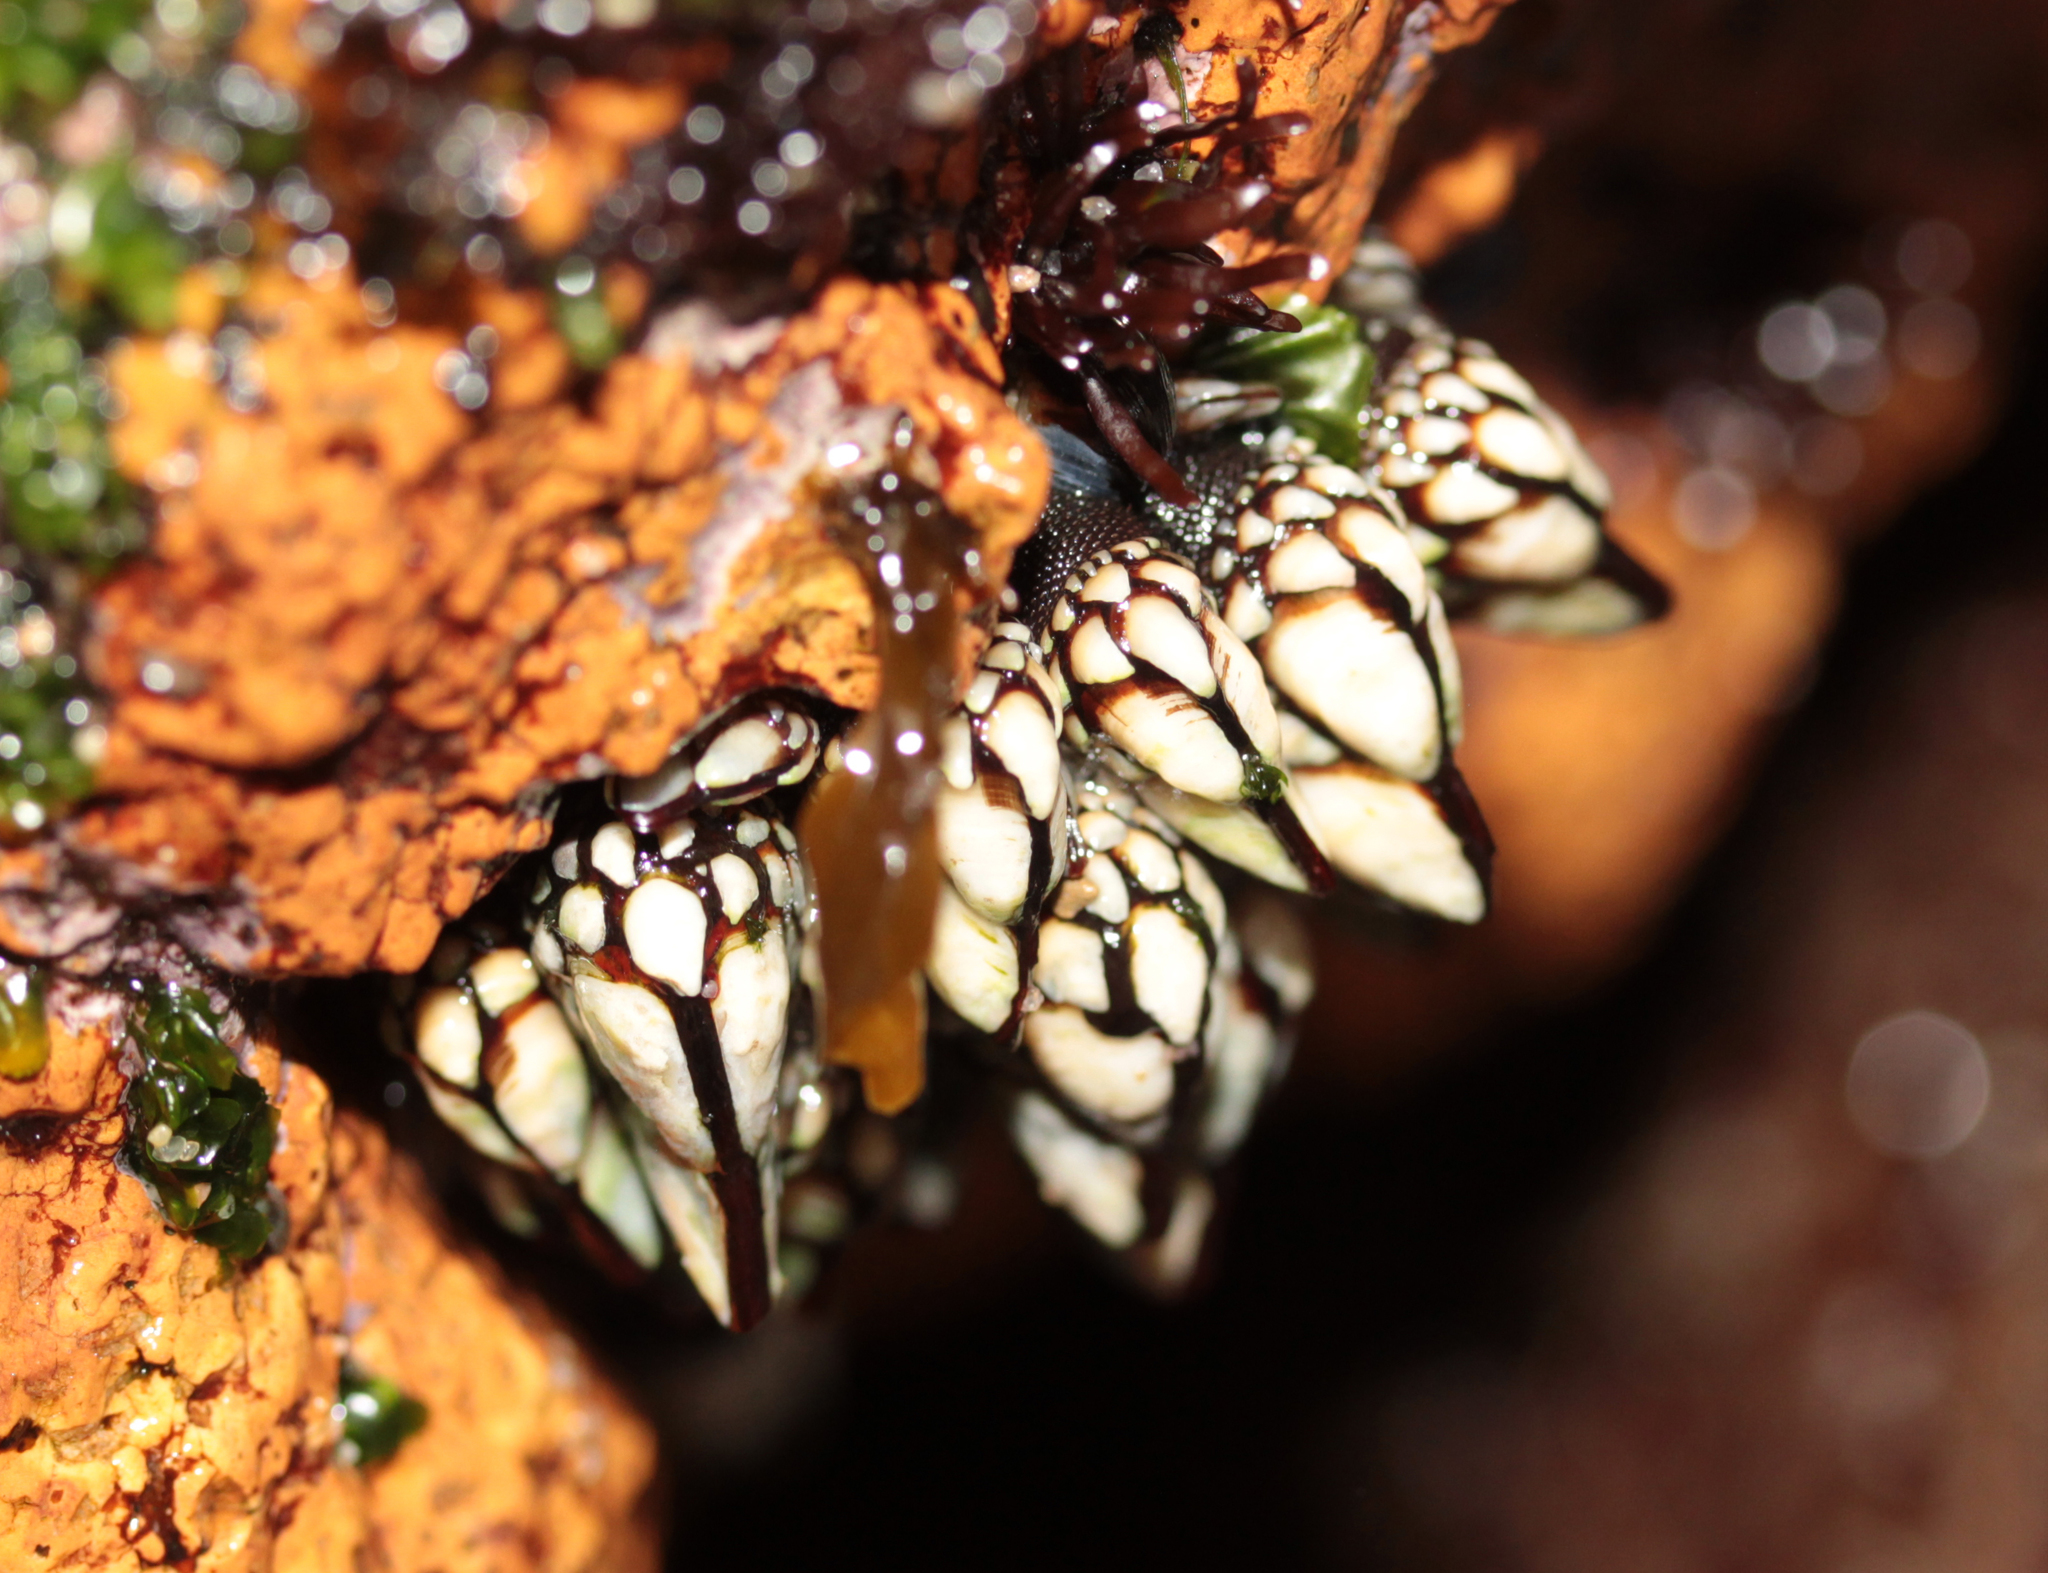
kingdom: Animalia
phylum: Arthropoda
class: Maxillopoda
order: Pedunculata
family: Pollicipedidae
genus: Pollicipes
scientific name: Pollicipes polymerus
